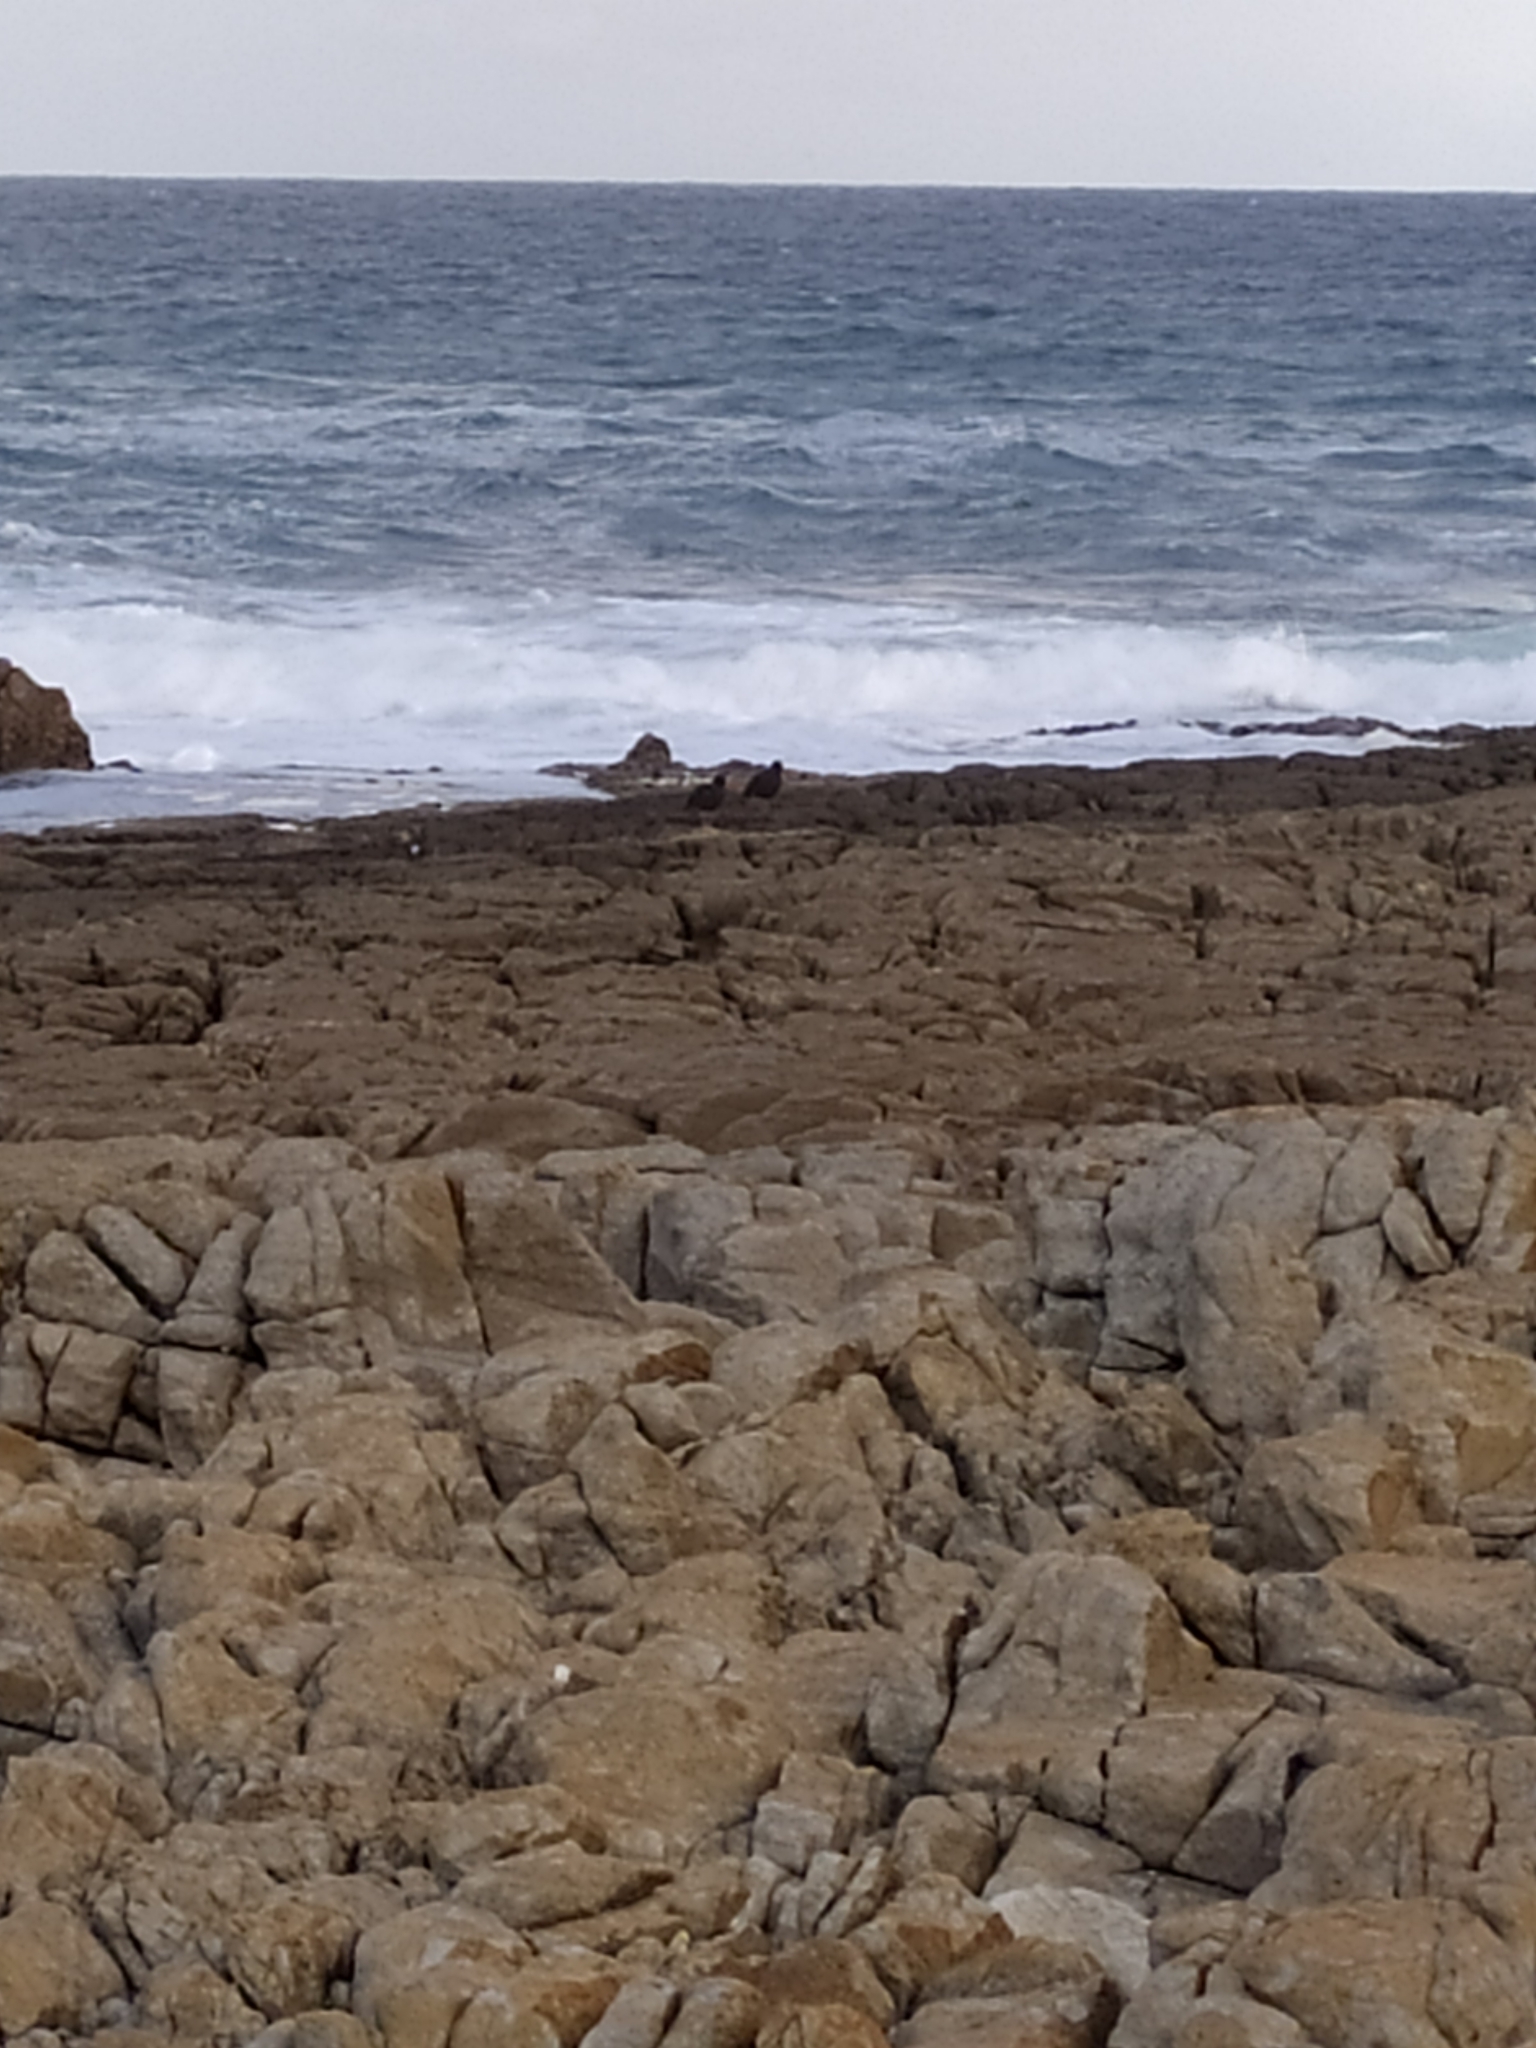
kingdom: Animalia
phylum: Chordata
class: Aves
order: Charadriiformes
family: Haematopodidae
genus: Haematopus
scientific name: Haematopus moquini
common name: African oystercatcher
